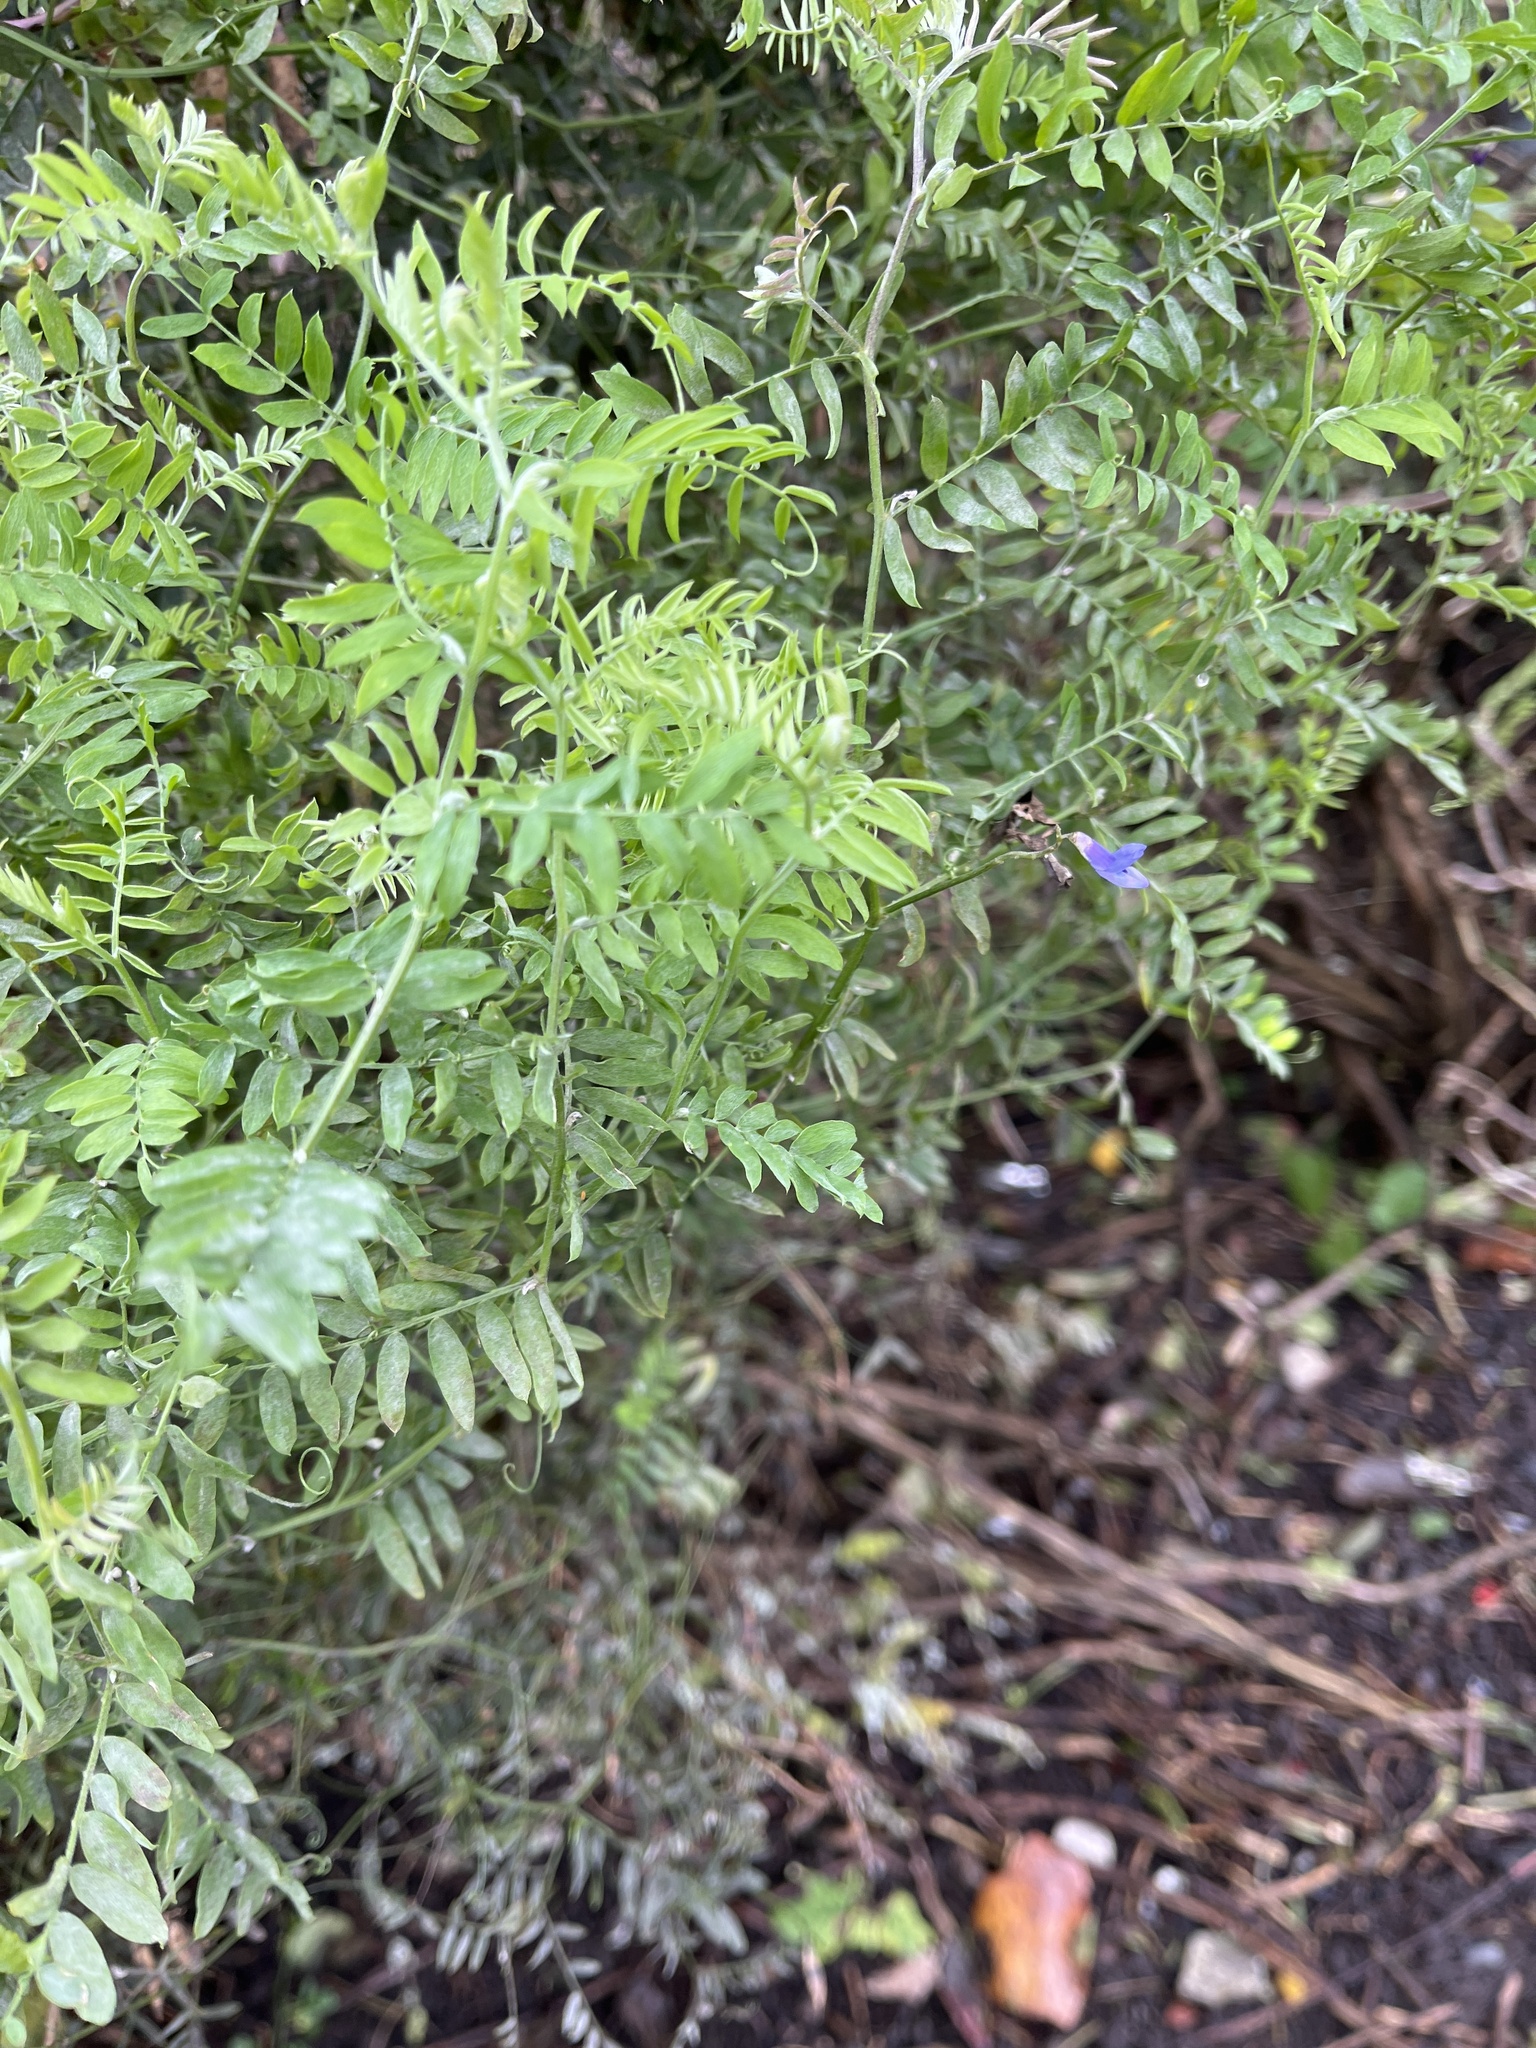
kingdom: Plantae
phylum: Tracheophyta
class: Magnoliopsida
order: Fabales
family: Fabaceae
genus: Vicia
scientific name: Vicia cracca
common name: Bird vetch
